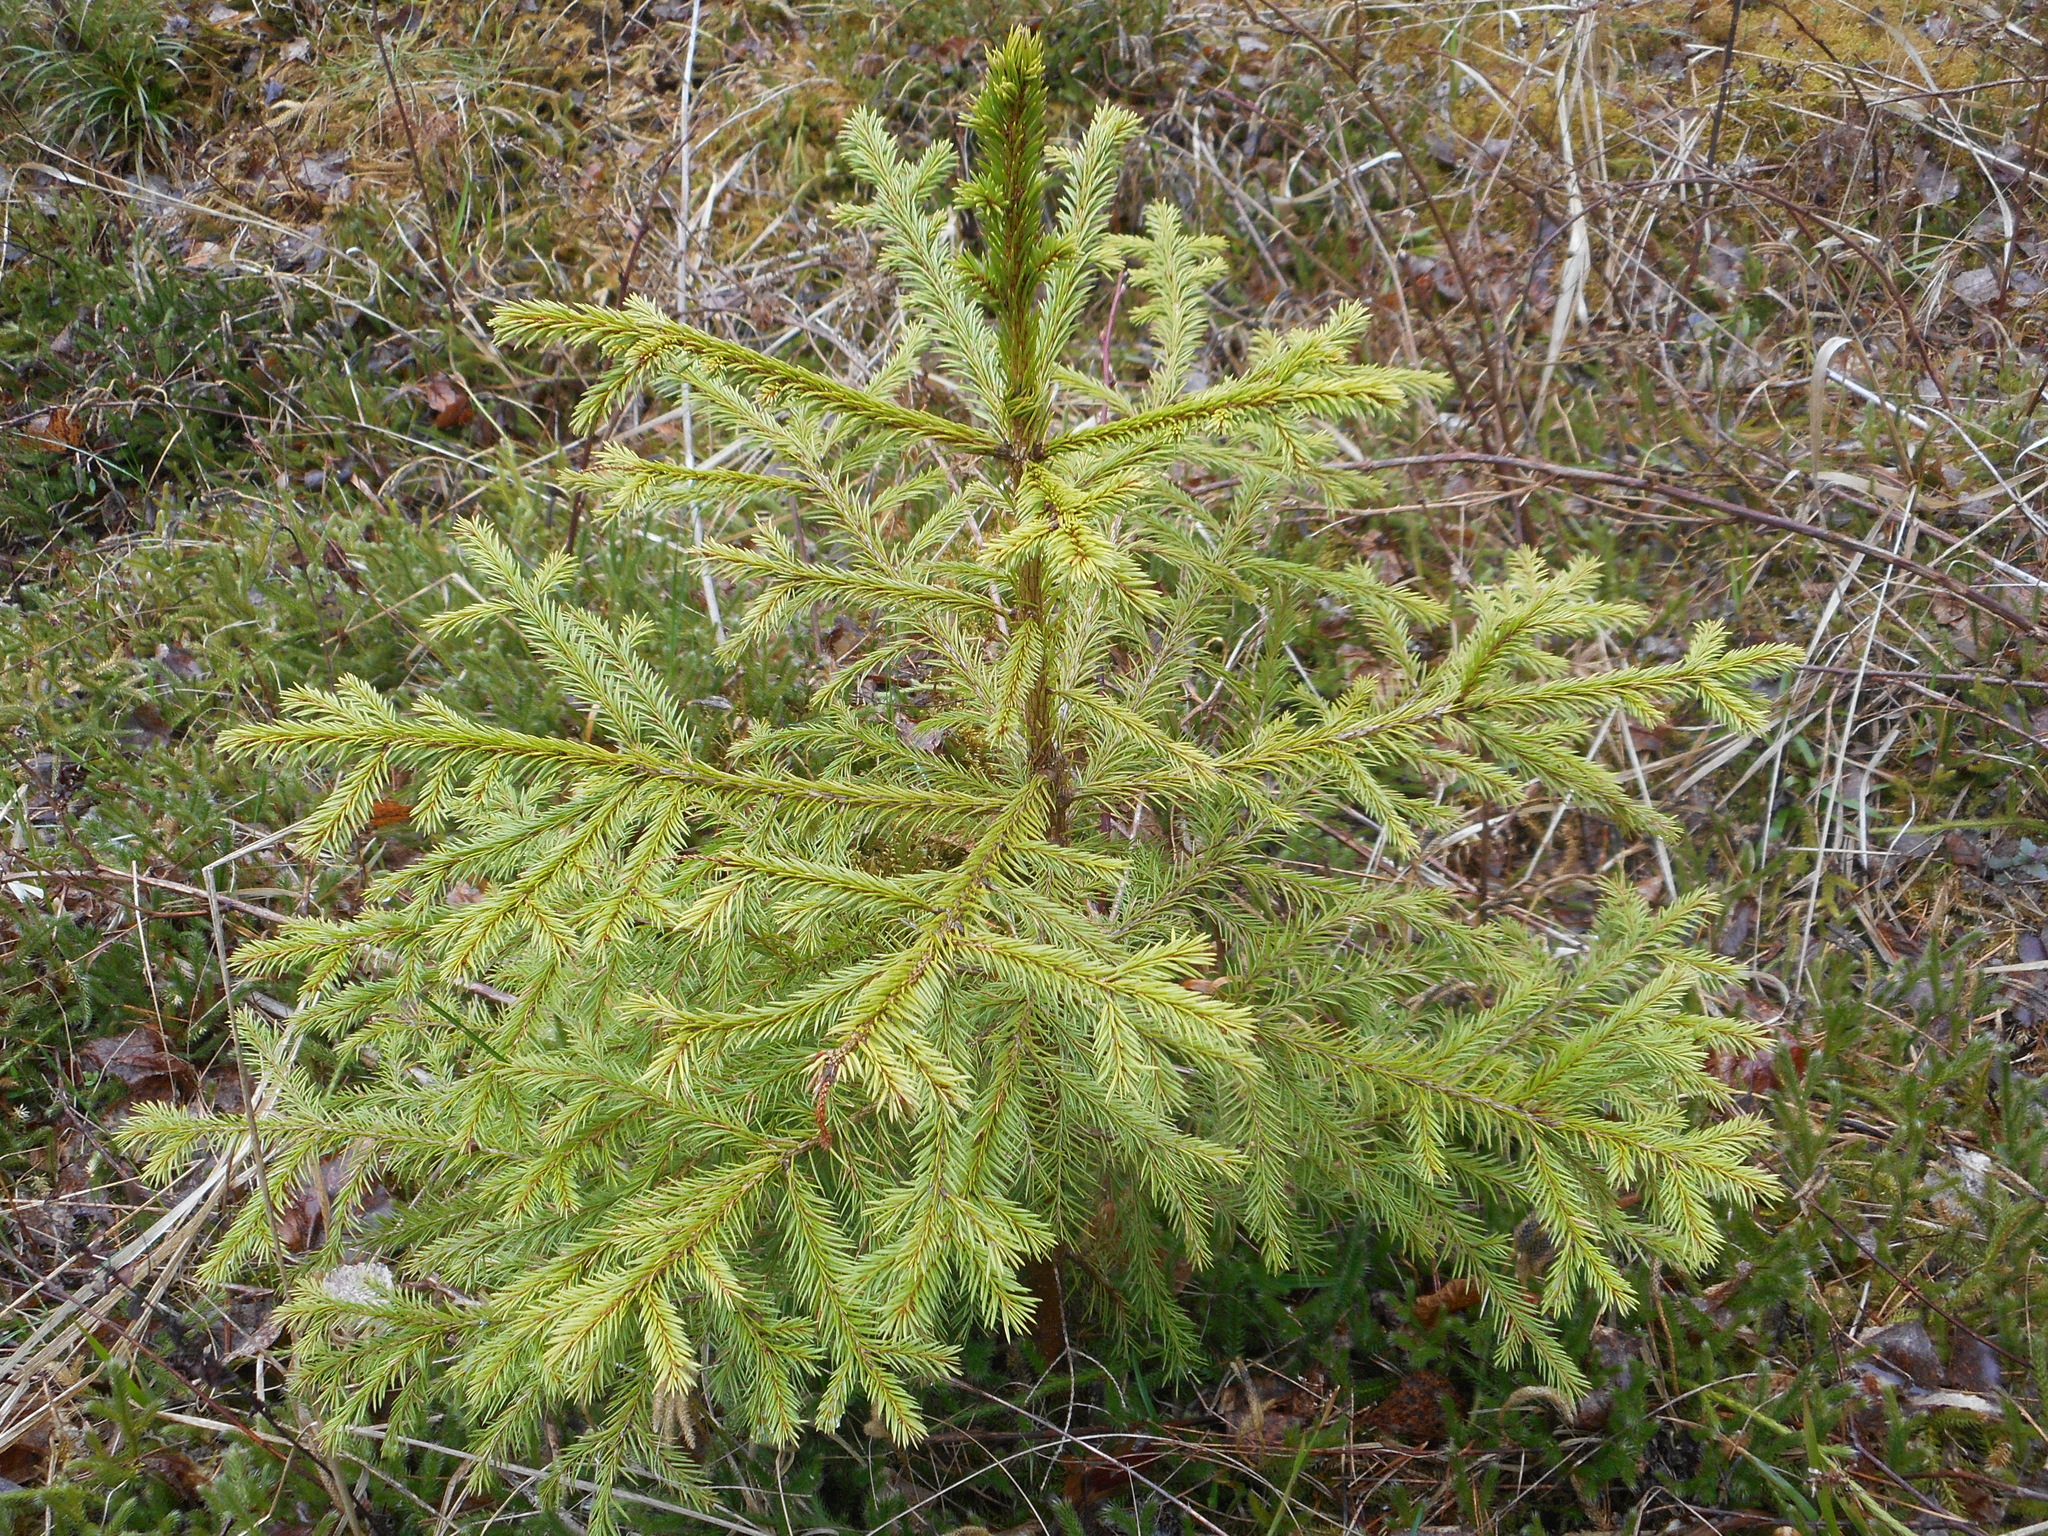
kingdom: Plantae
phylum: Tracheophyta
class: Pinopsida
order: Pinales
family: Pinaceae
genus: Picea
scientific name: Picea abies
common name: Norway spruce
